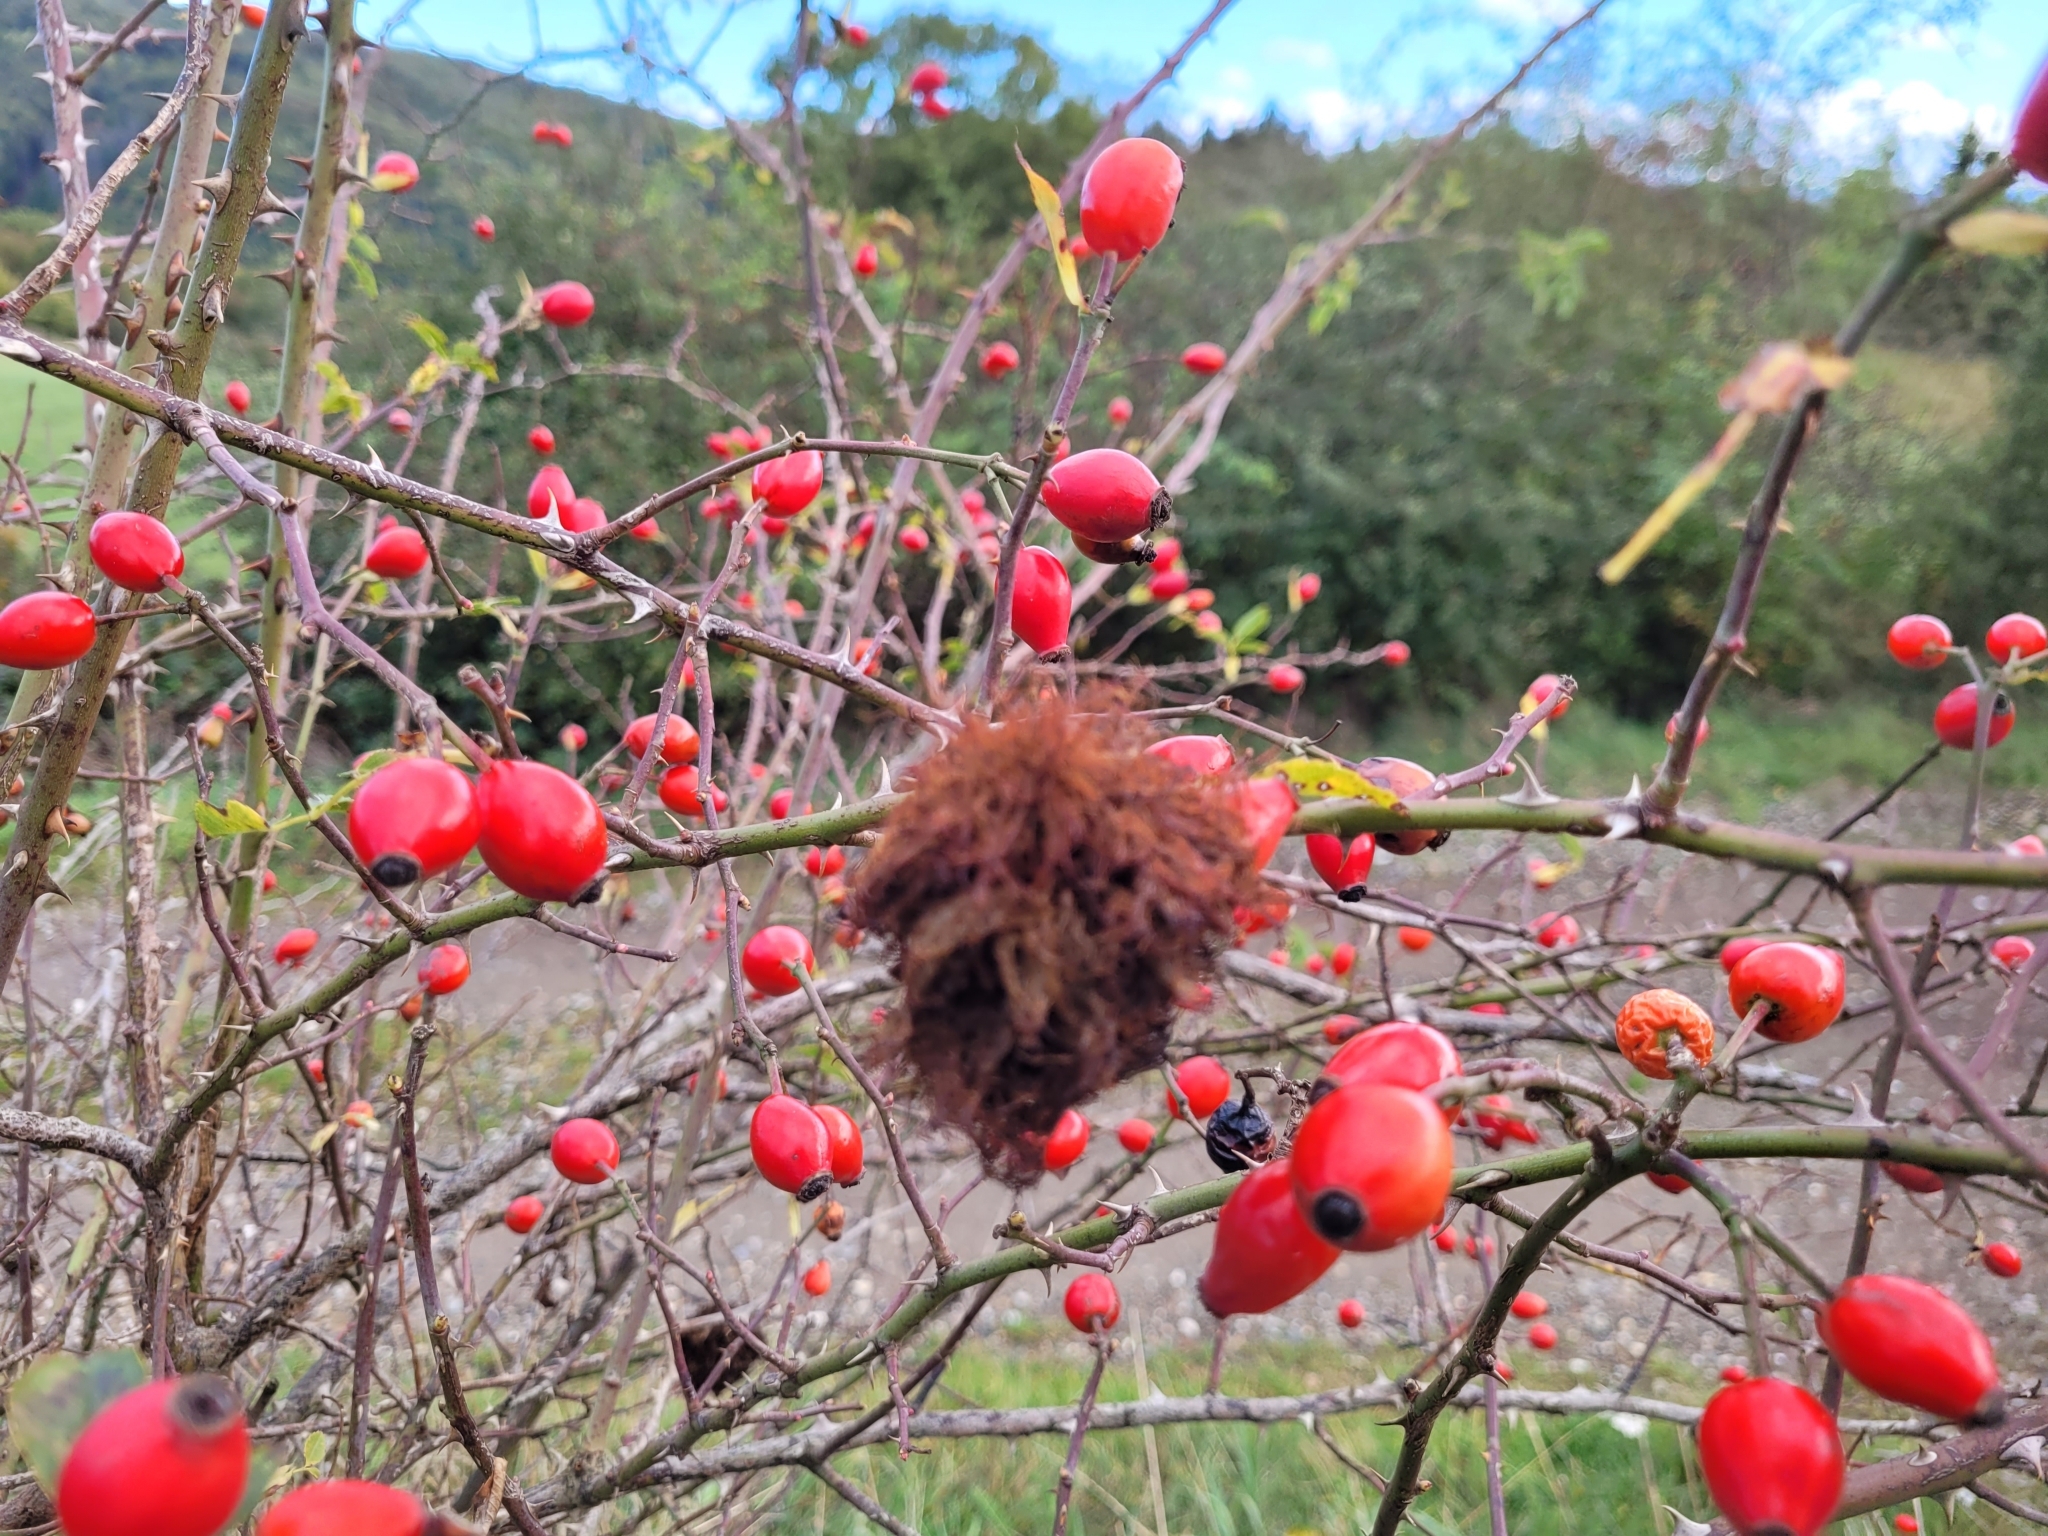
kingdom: Animalia
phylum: Arthropoda
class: Insecta
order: Hymenoptera
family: Cynipidae
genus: Diplolepis
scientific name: Diplolepis rosae
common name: Bedeguar gall
